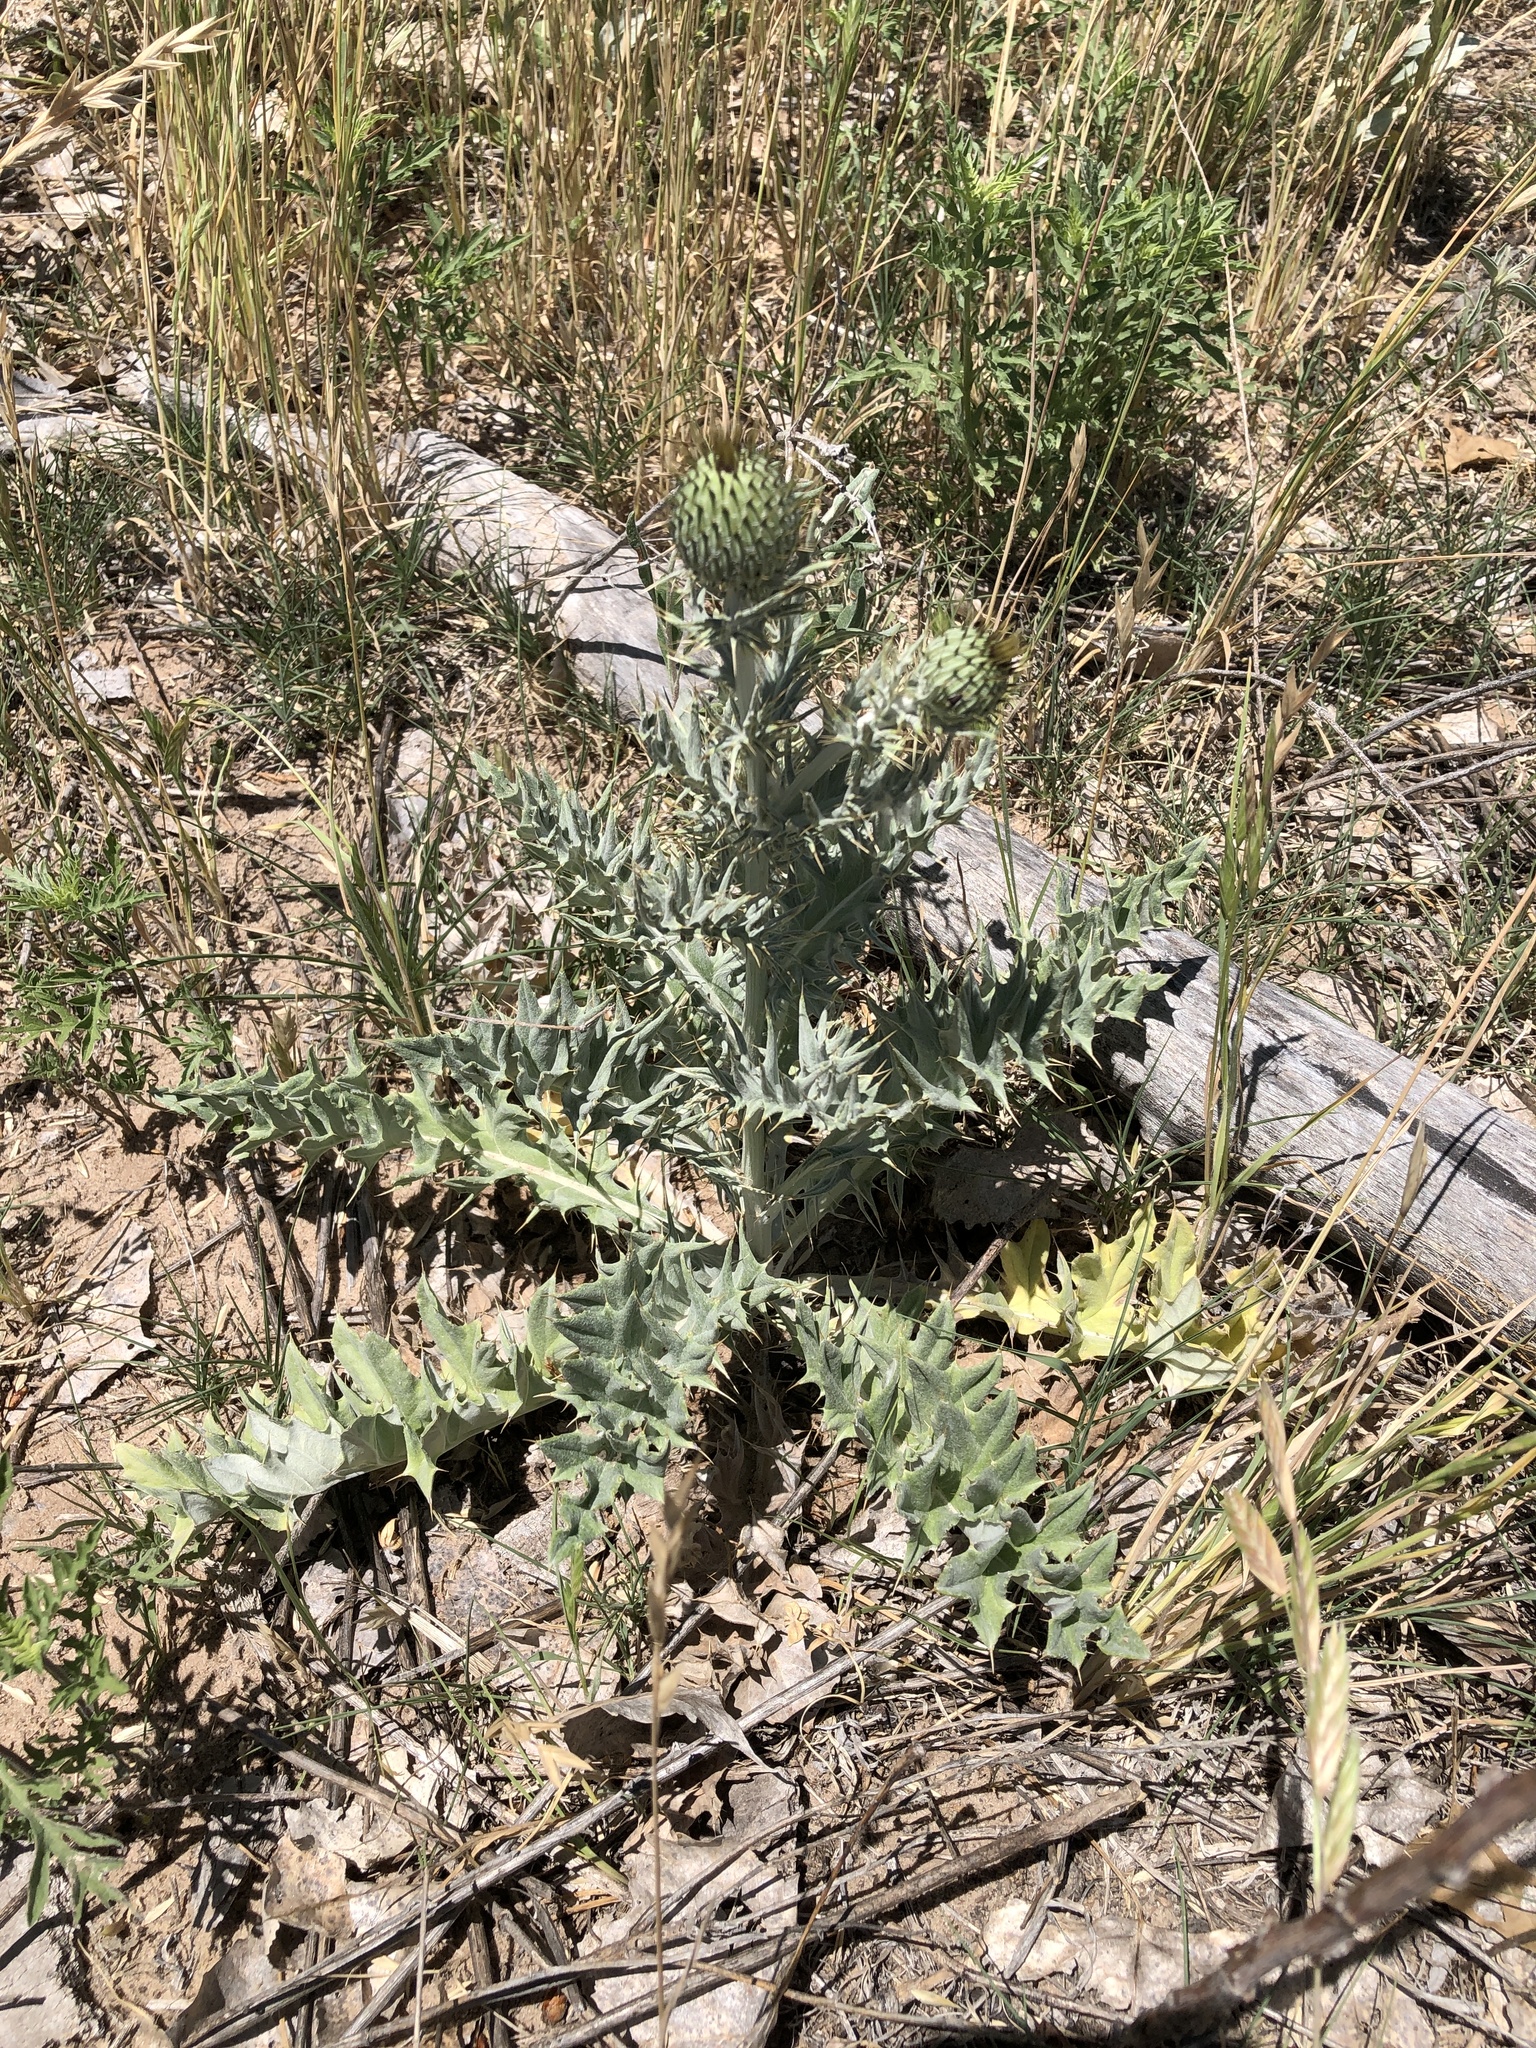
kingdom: Plantae
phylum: Tracheophyta
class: Magnoliopsida
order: Asterales
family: Asteraceae
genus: Cirsium
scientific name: Cirsium undulatum
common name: Pasture thistle
